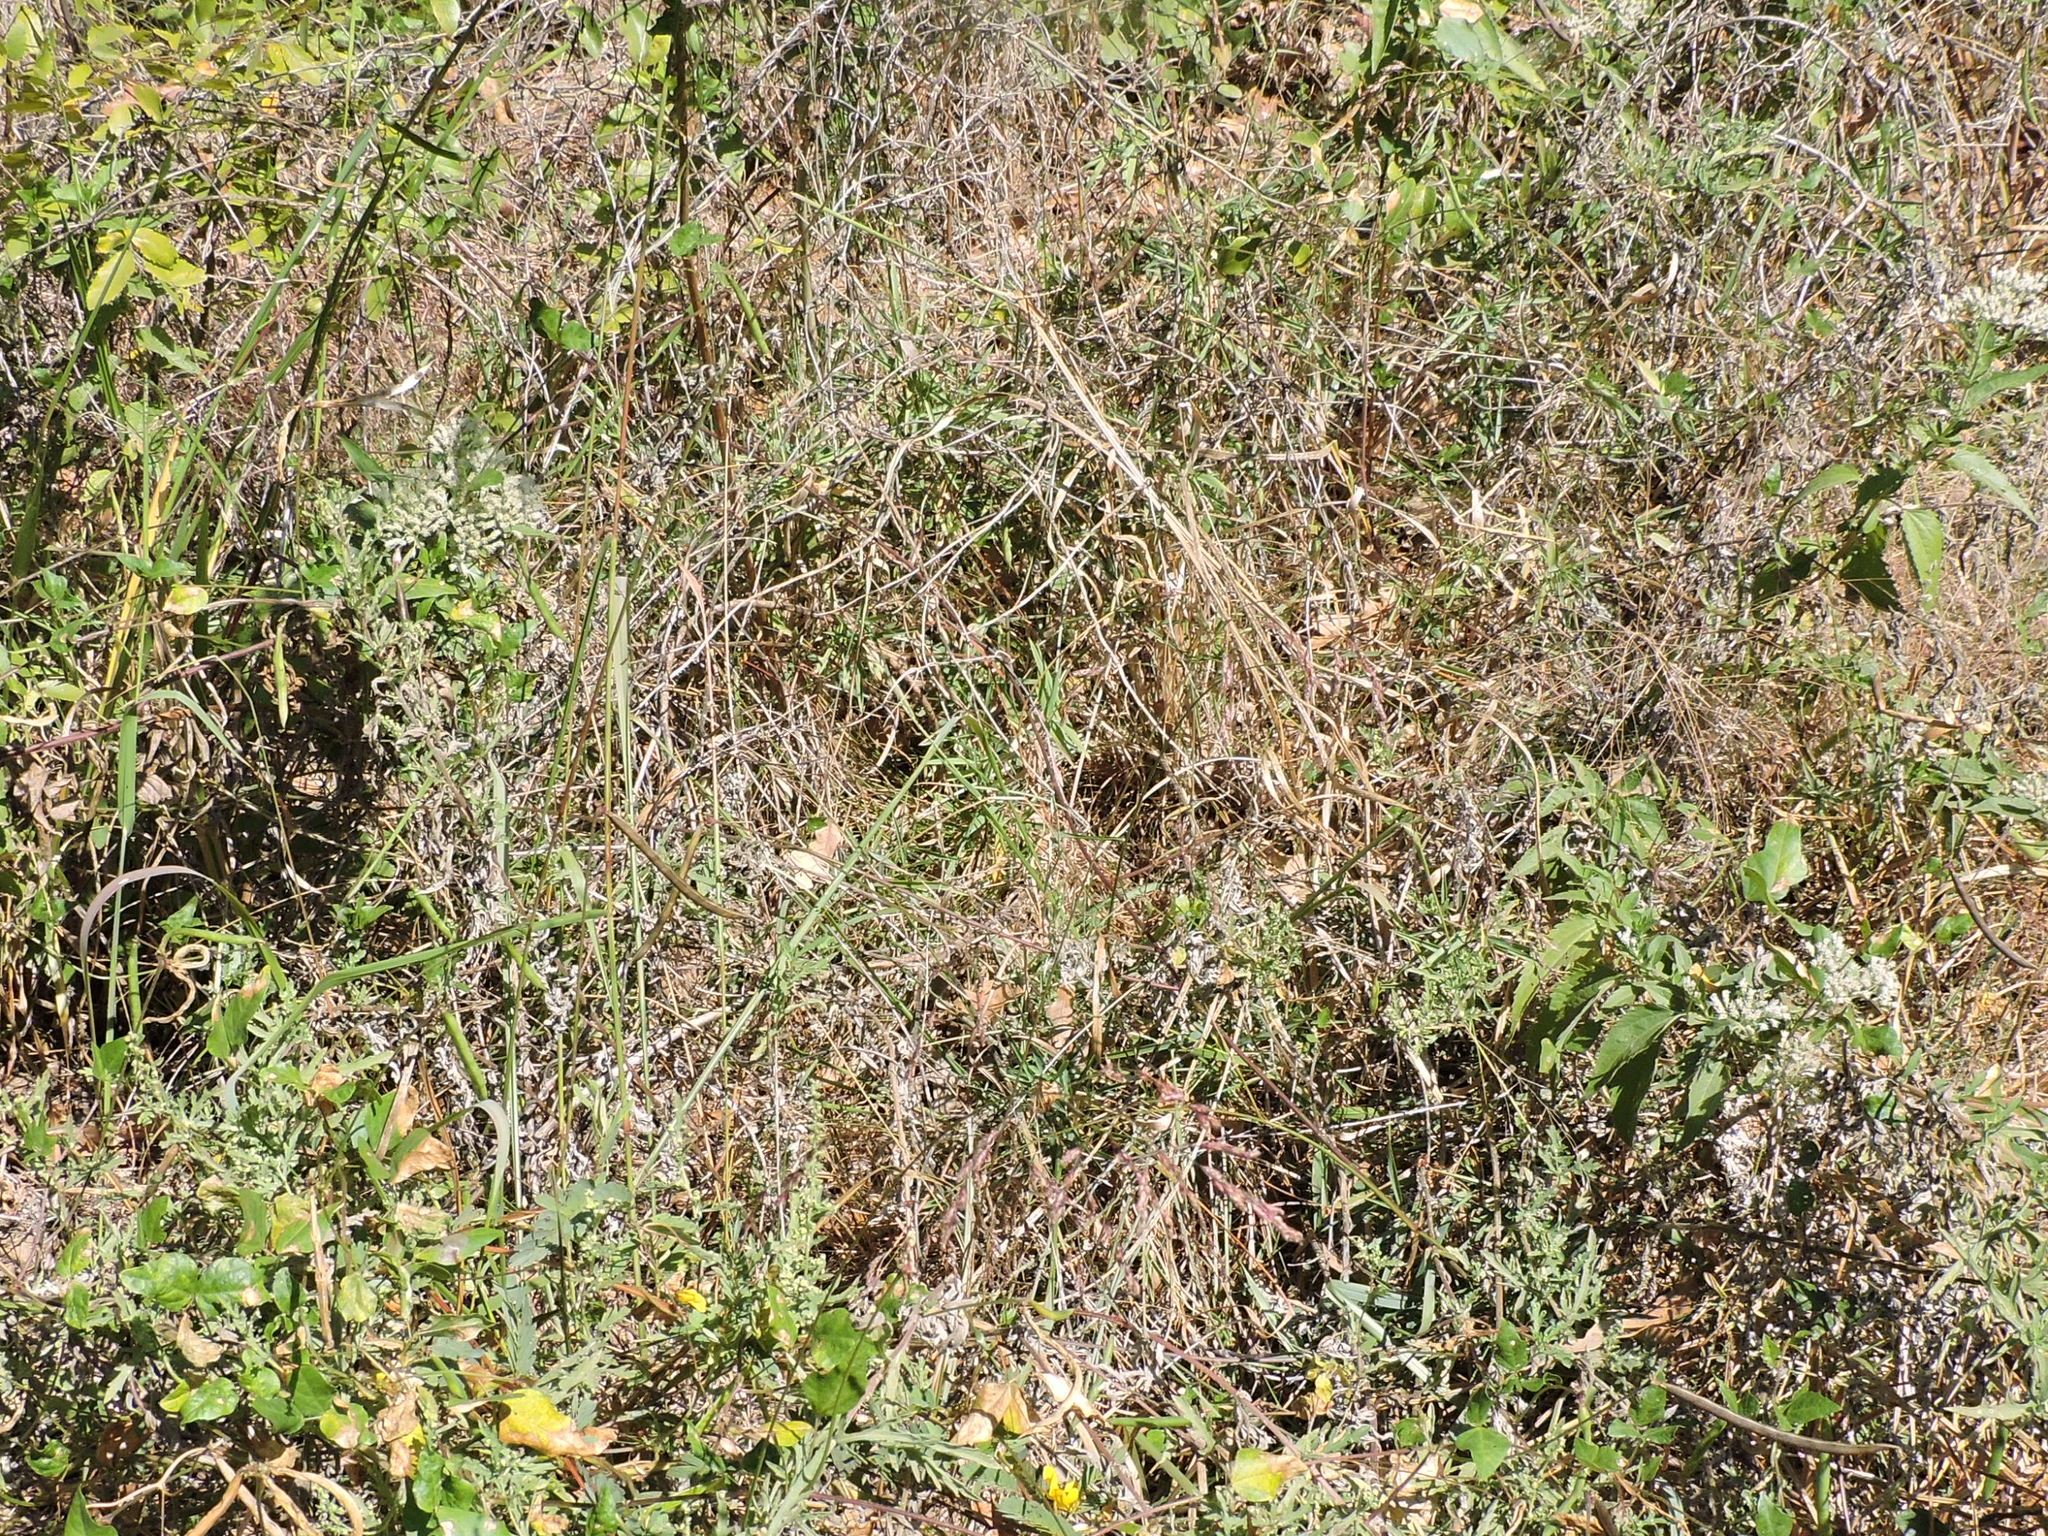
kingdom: Plantae
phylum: Tracheophyta
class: Liliopsida
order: Poales
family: Poaceae
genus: Tridens
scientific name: Tridens flavus
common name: Purpletop
